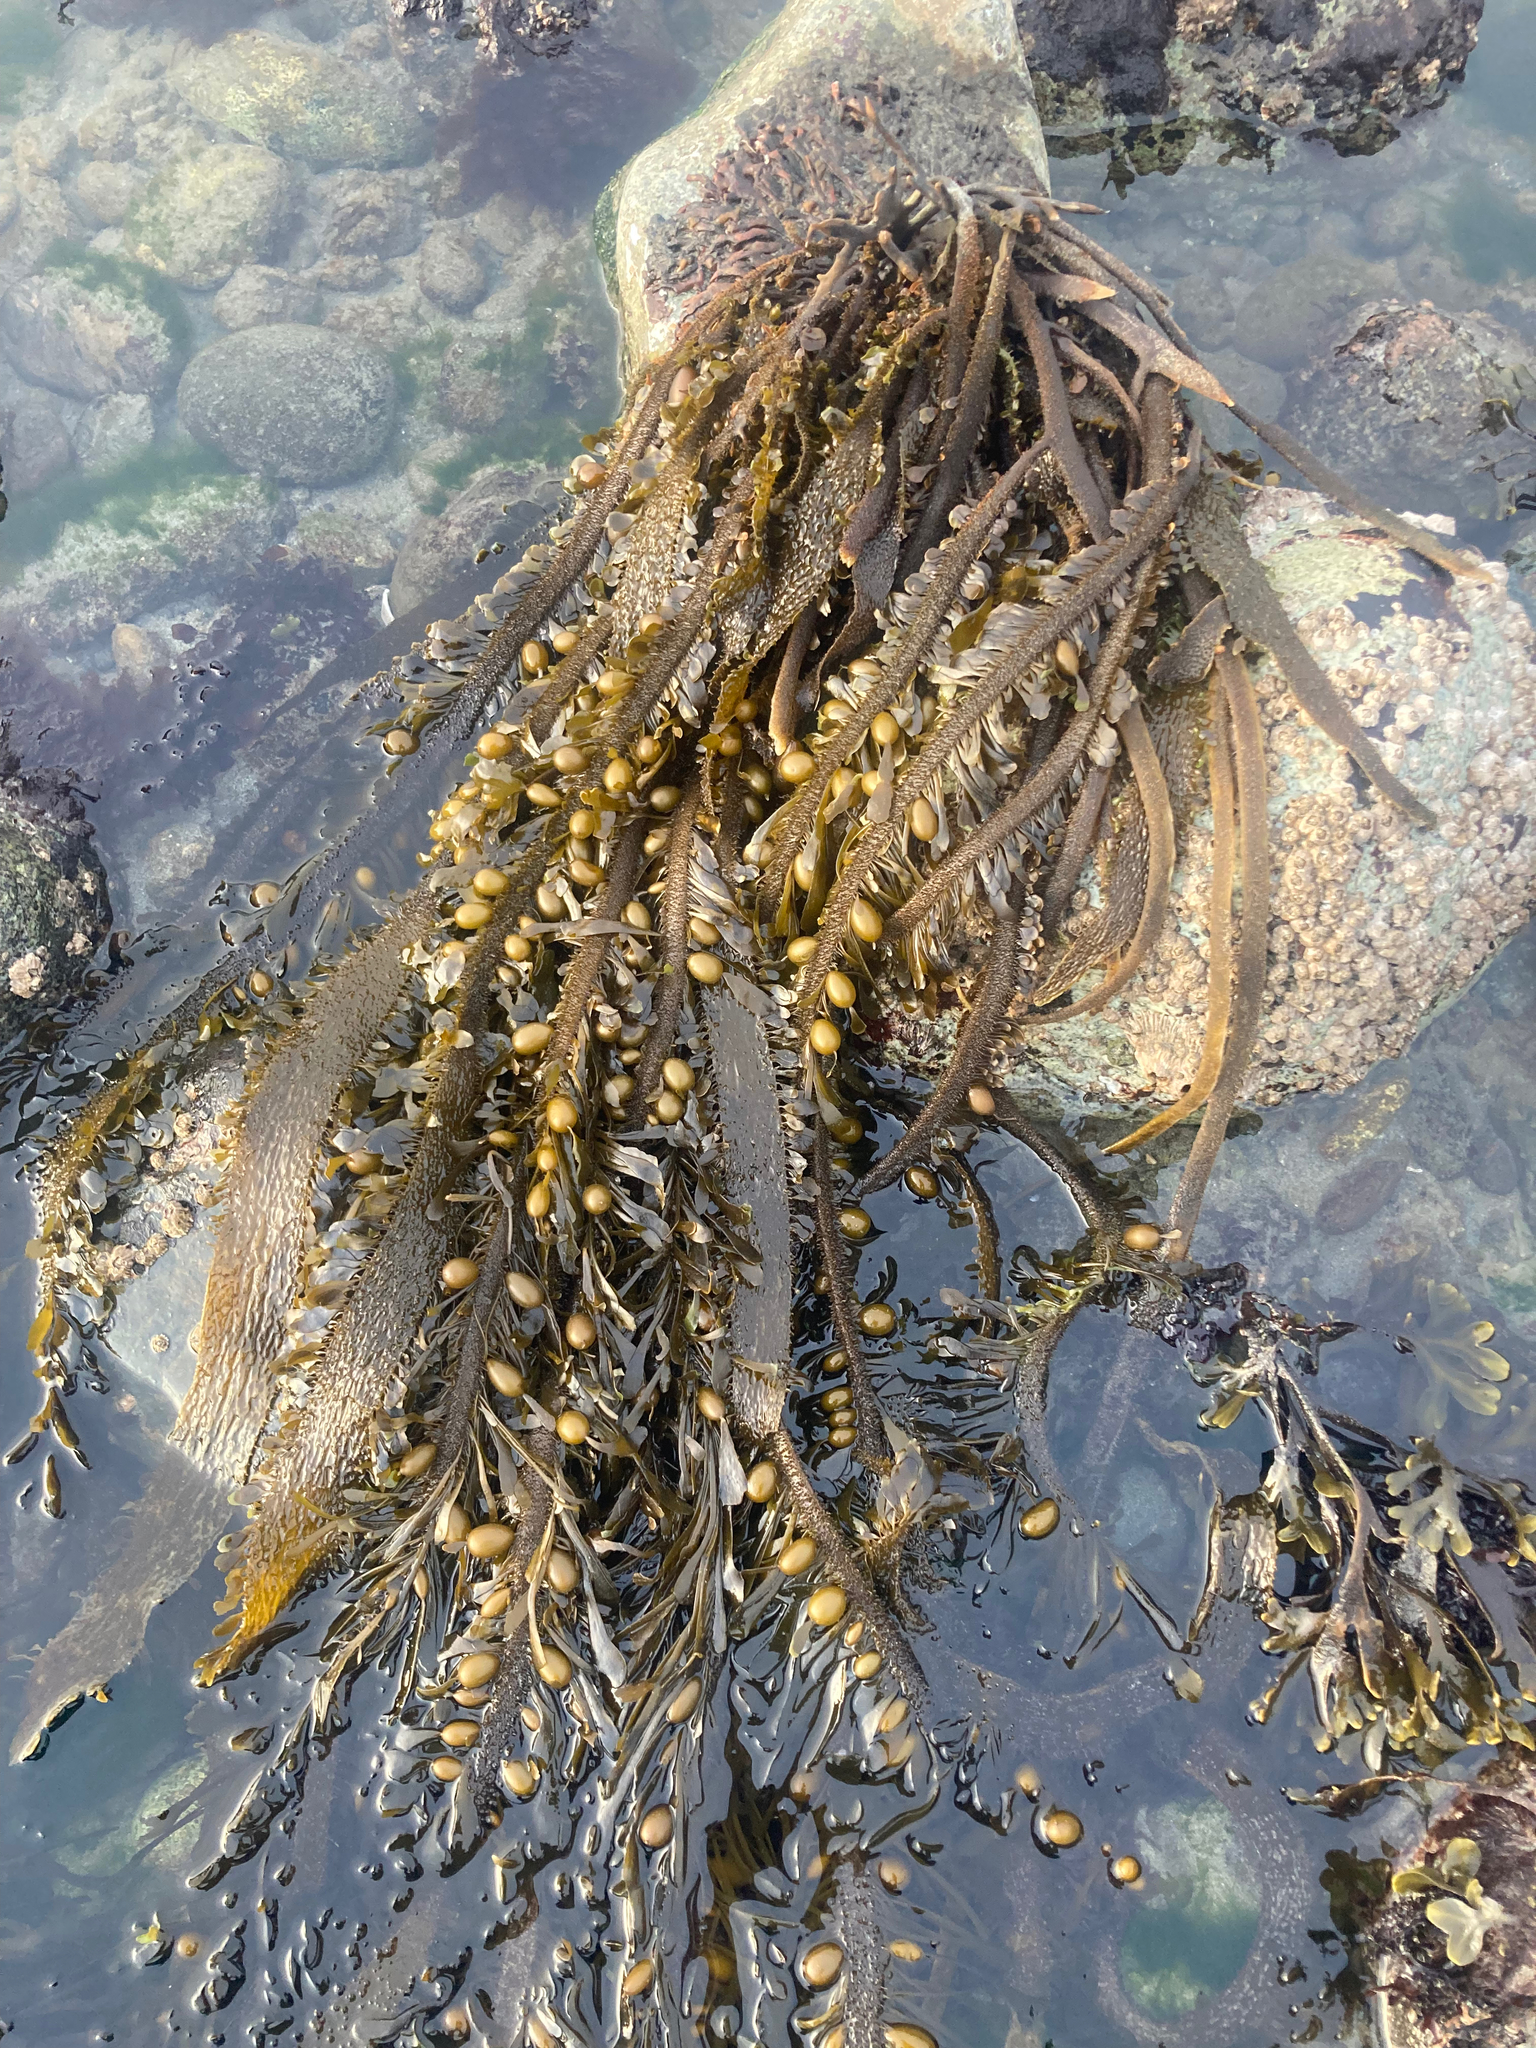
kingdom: Chromista
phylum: Ochrophyta
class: Phaeophyceae
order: Laminariales
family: Lessoniaceae
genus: Egregia
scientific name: Egregia menziesii
